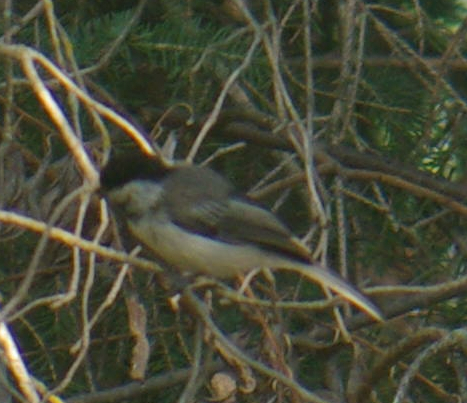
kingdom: Animalia
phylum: Chordata
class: Aves
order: Passeriformes
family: Paridae
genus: Poecile
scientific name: Poecile atricapillus
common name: Black-capped chickadee
